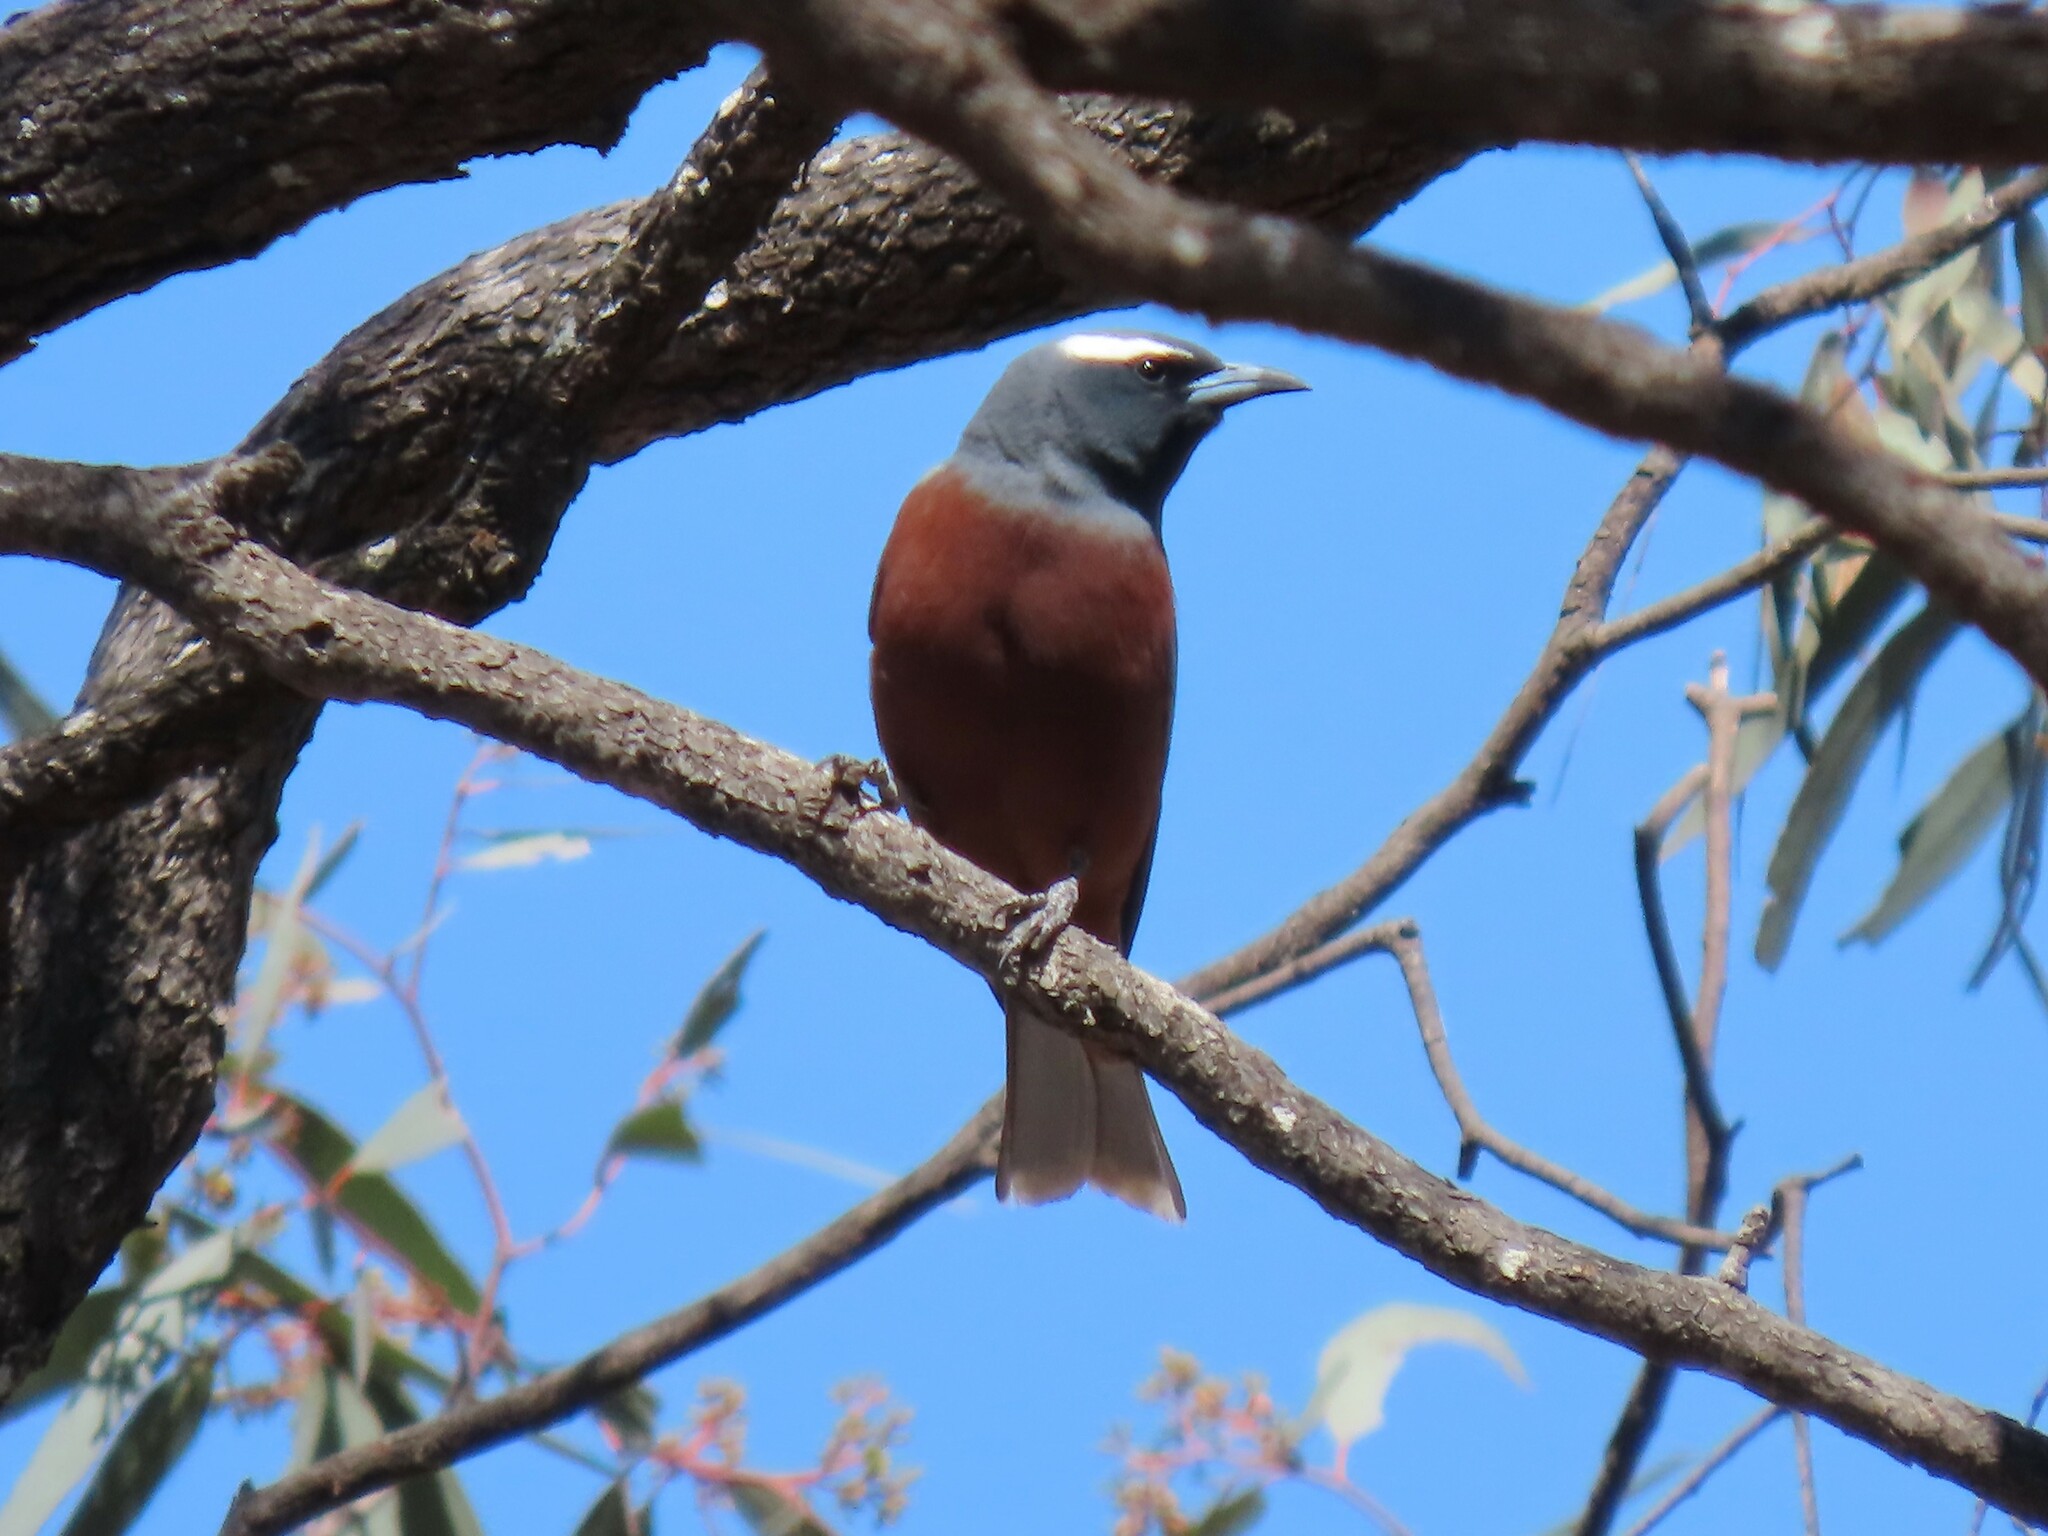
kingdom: Animalia
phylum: Chordata
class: Aves
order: Passeriformes
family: Artamidae
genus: Artamus
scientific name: Artamus superciliosus
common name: White-browed woodswallow
